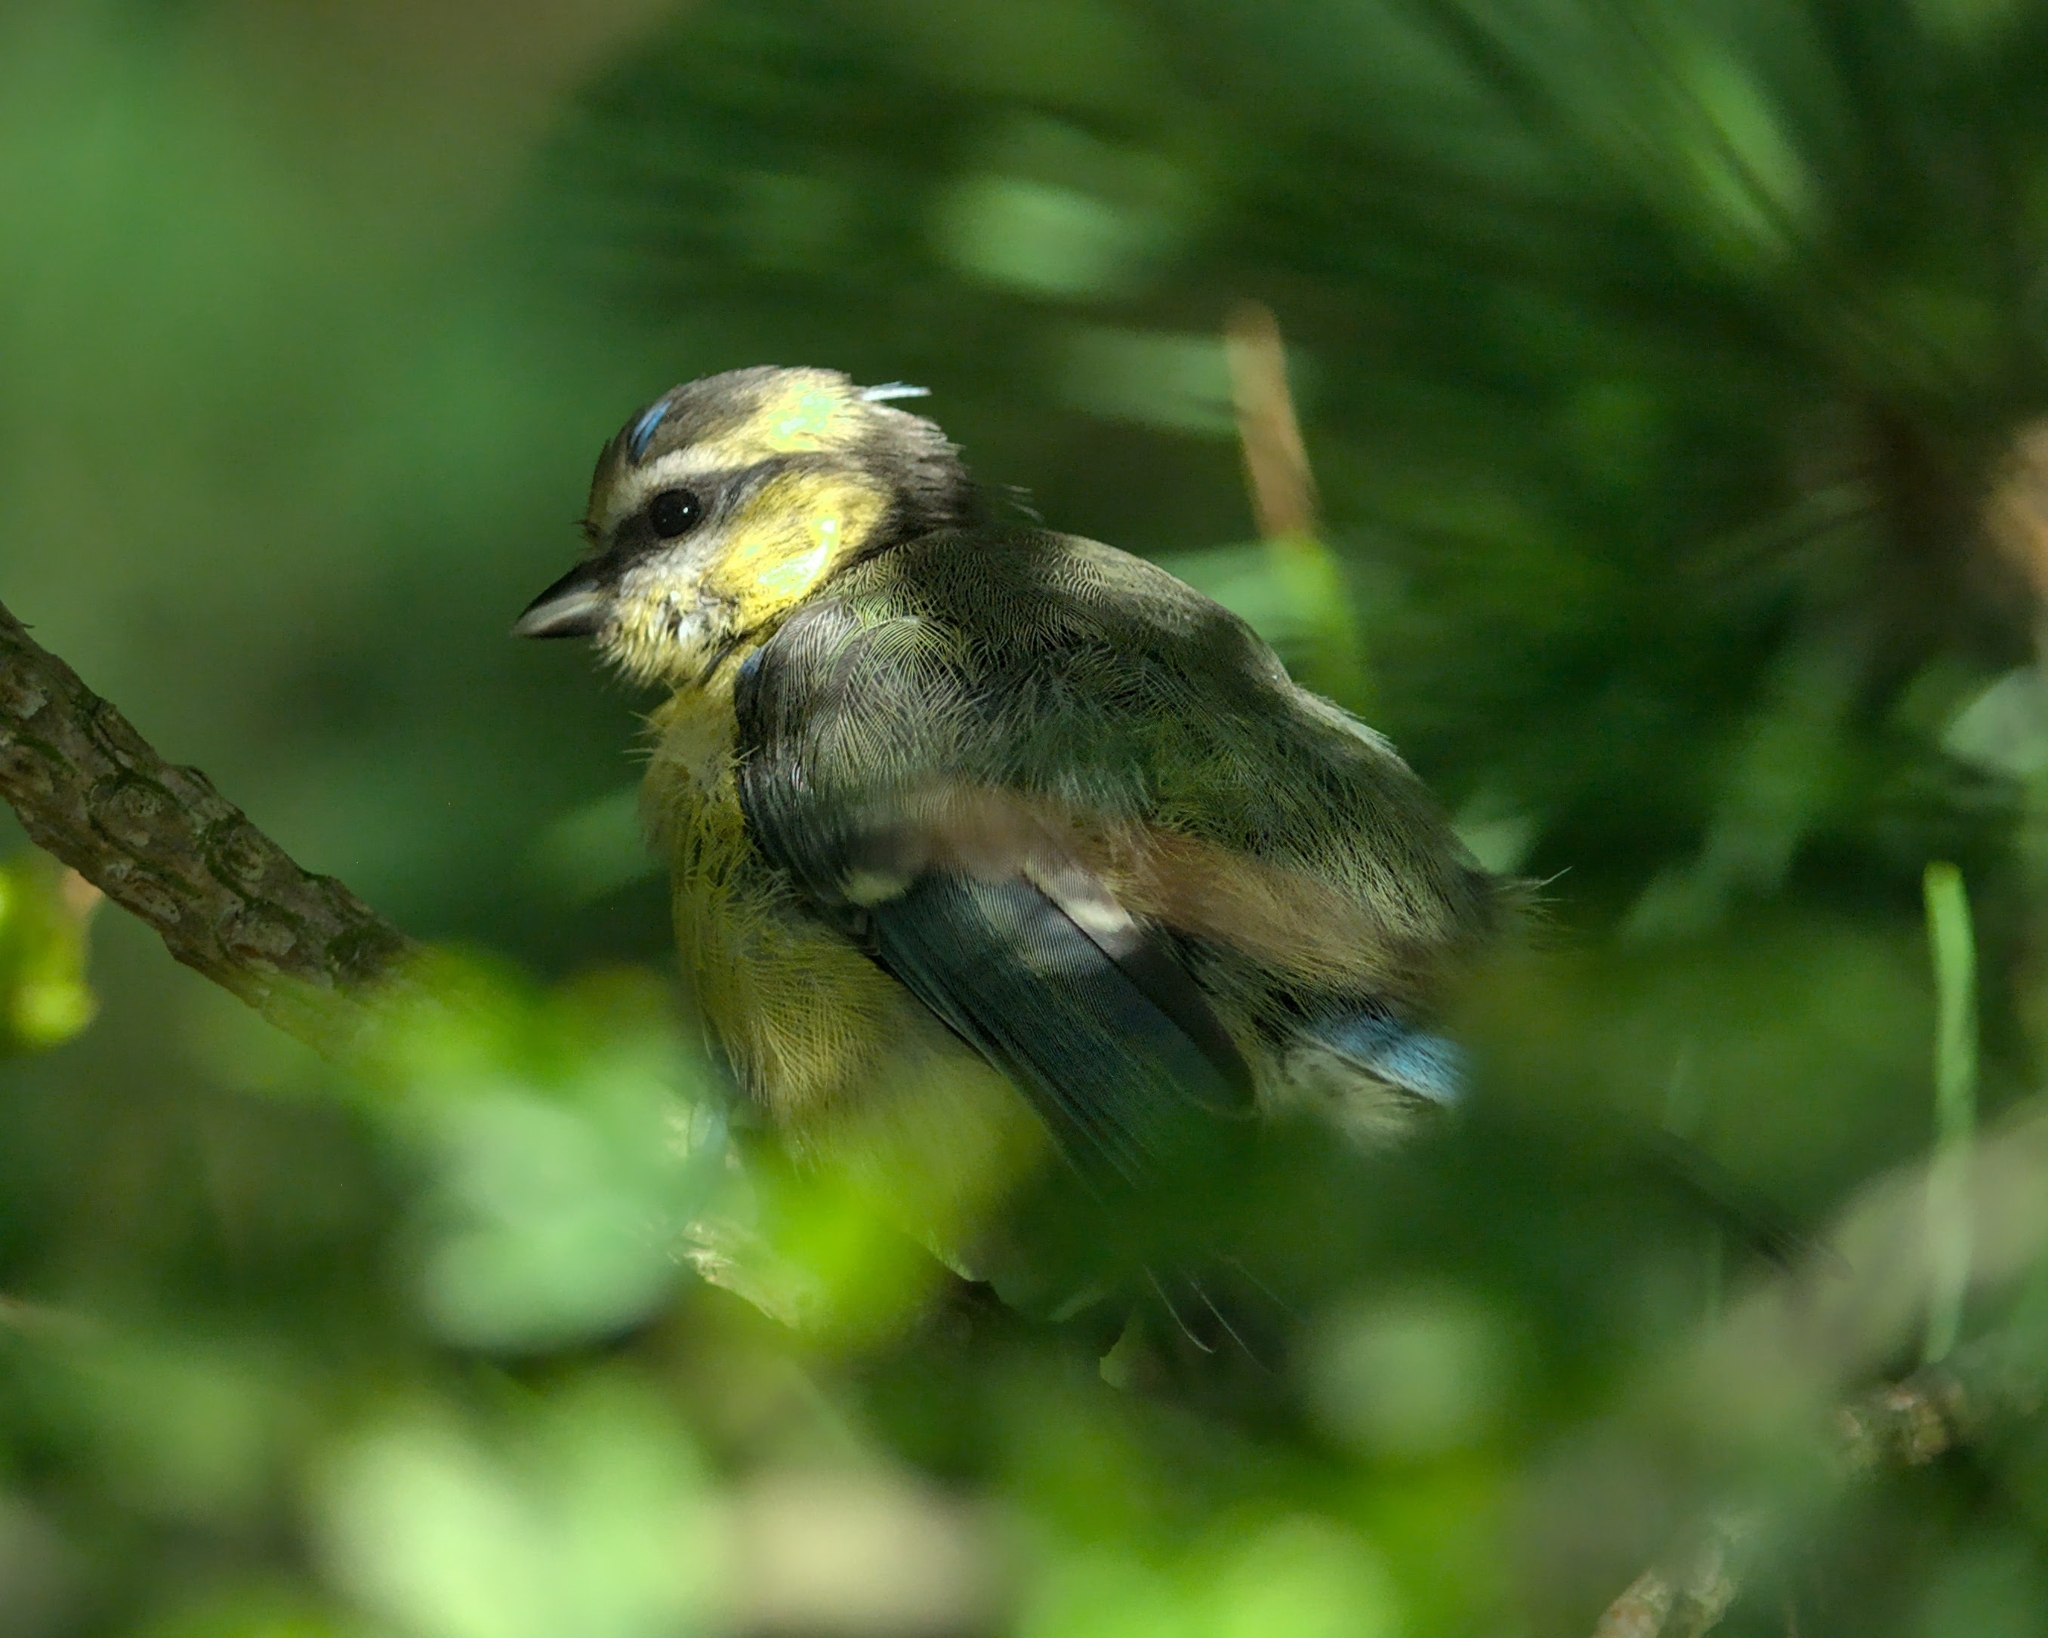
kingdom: Animalia
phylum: Chordata
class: Aves
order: Passeriformes
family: Paridae
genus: Cyanistes
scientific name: Cyanistes caeruleus
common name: Eurasian blue tit
